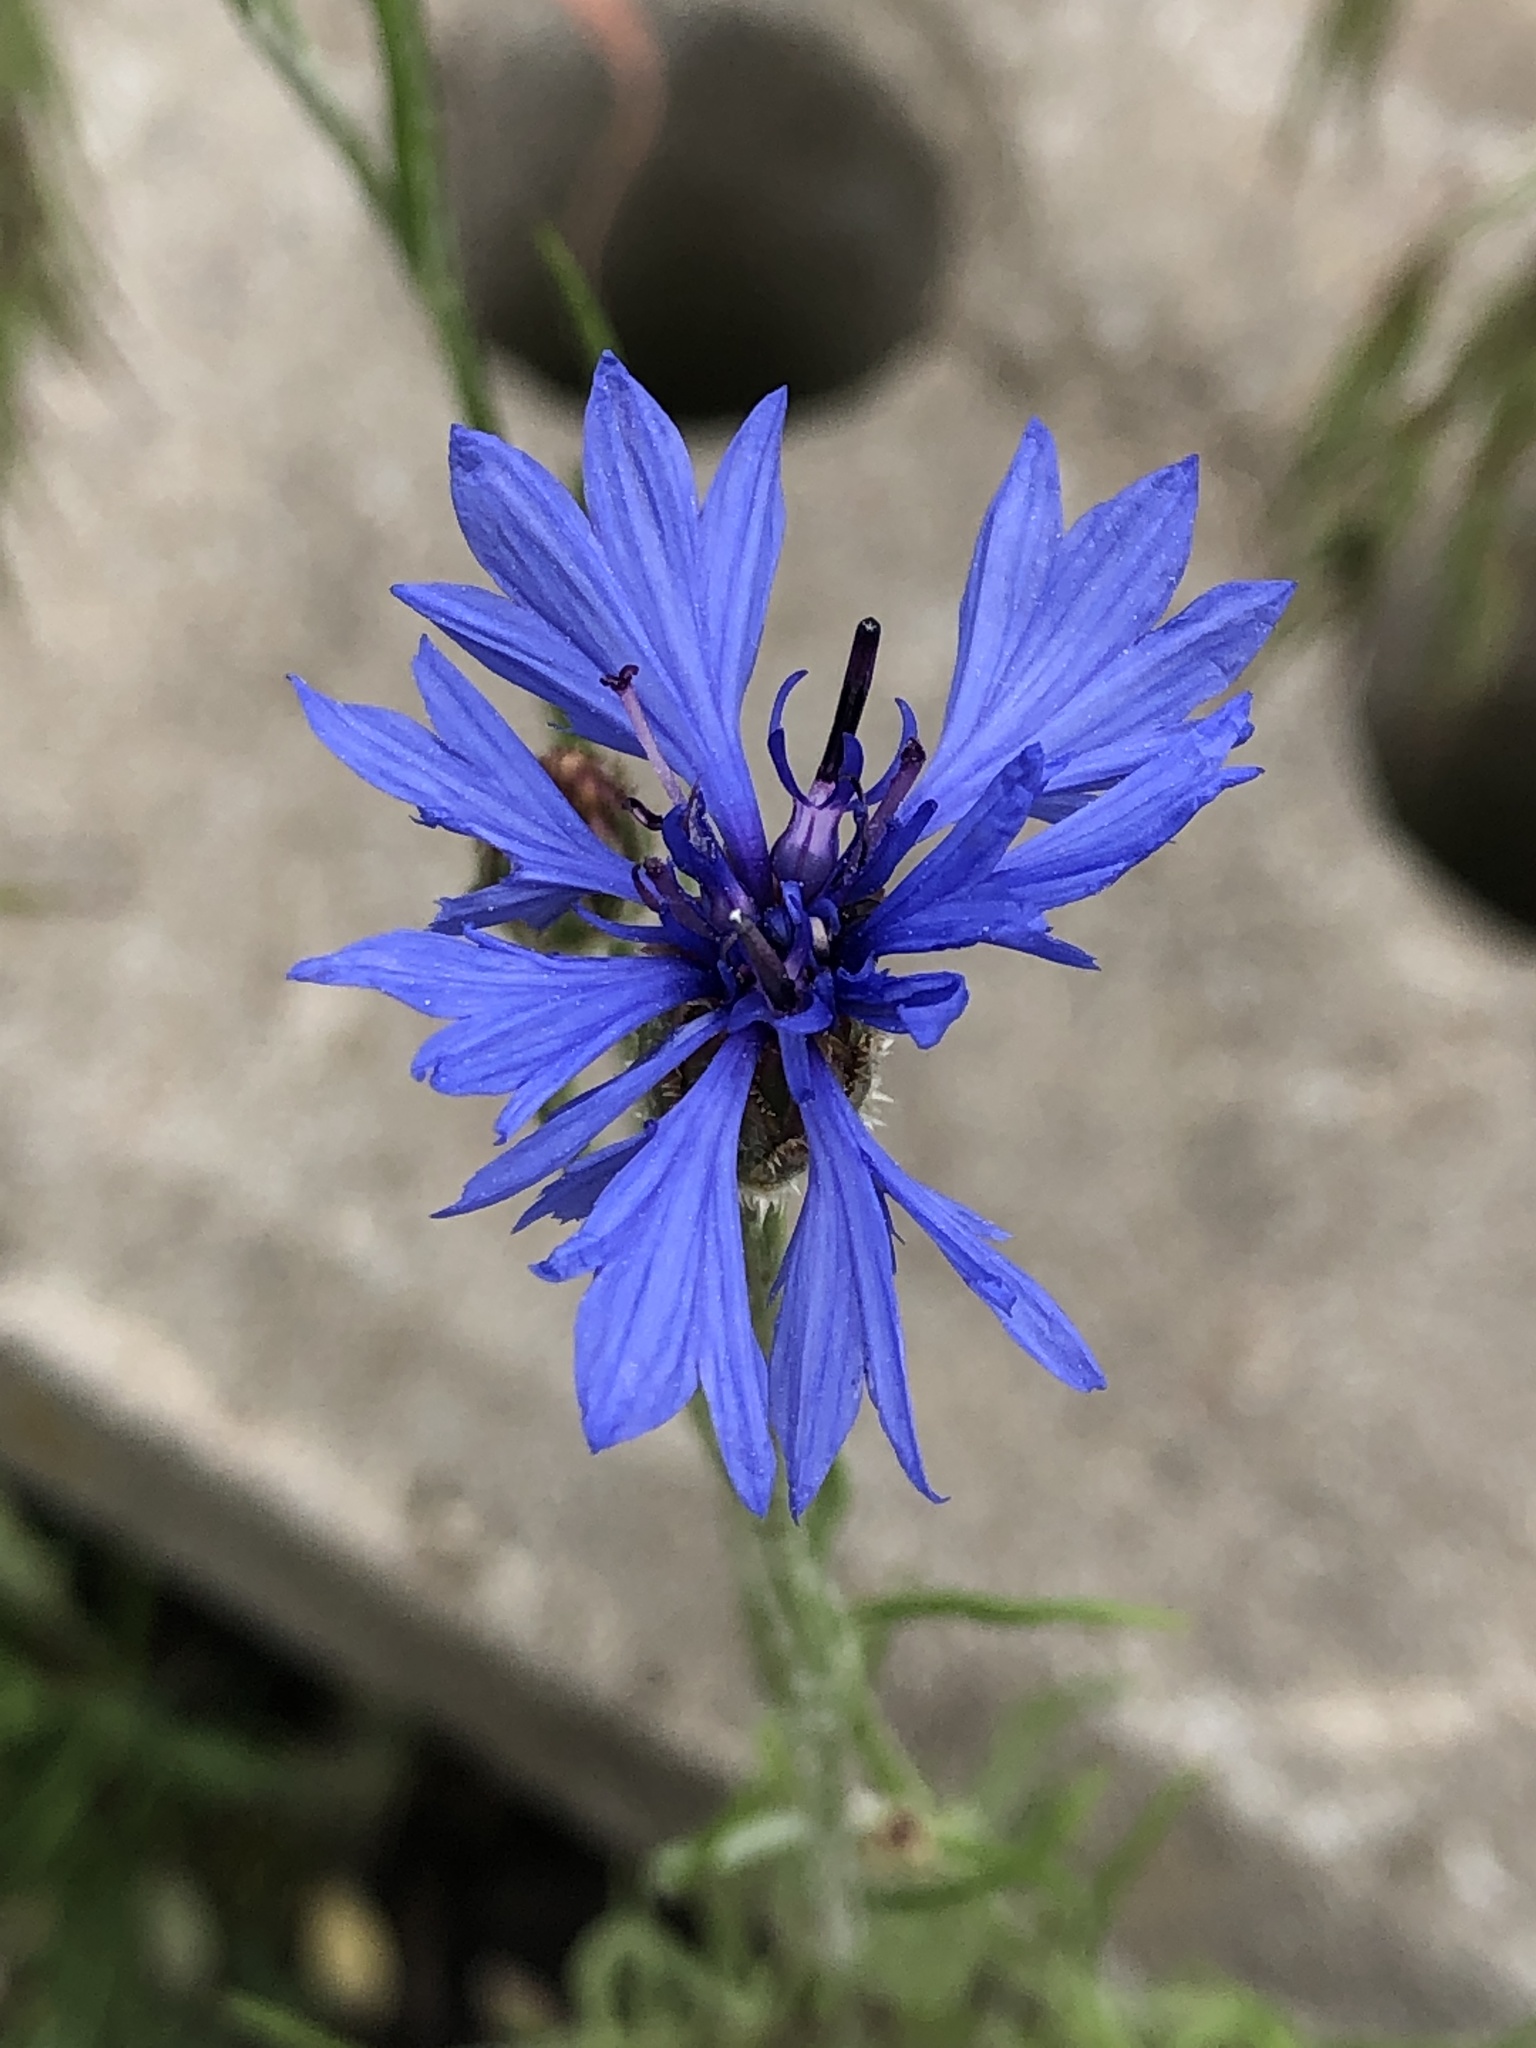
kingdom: Plantae
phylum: Tracheophyta
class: Magnoliopsida
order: Asterales
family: Asteraceae
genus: Centaurea
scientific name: Centaurea cyanus
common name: Cornflower
